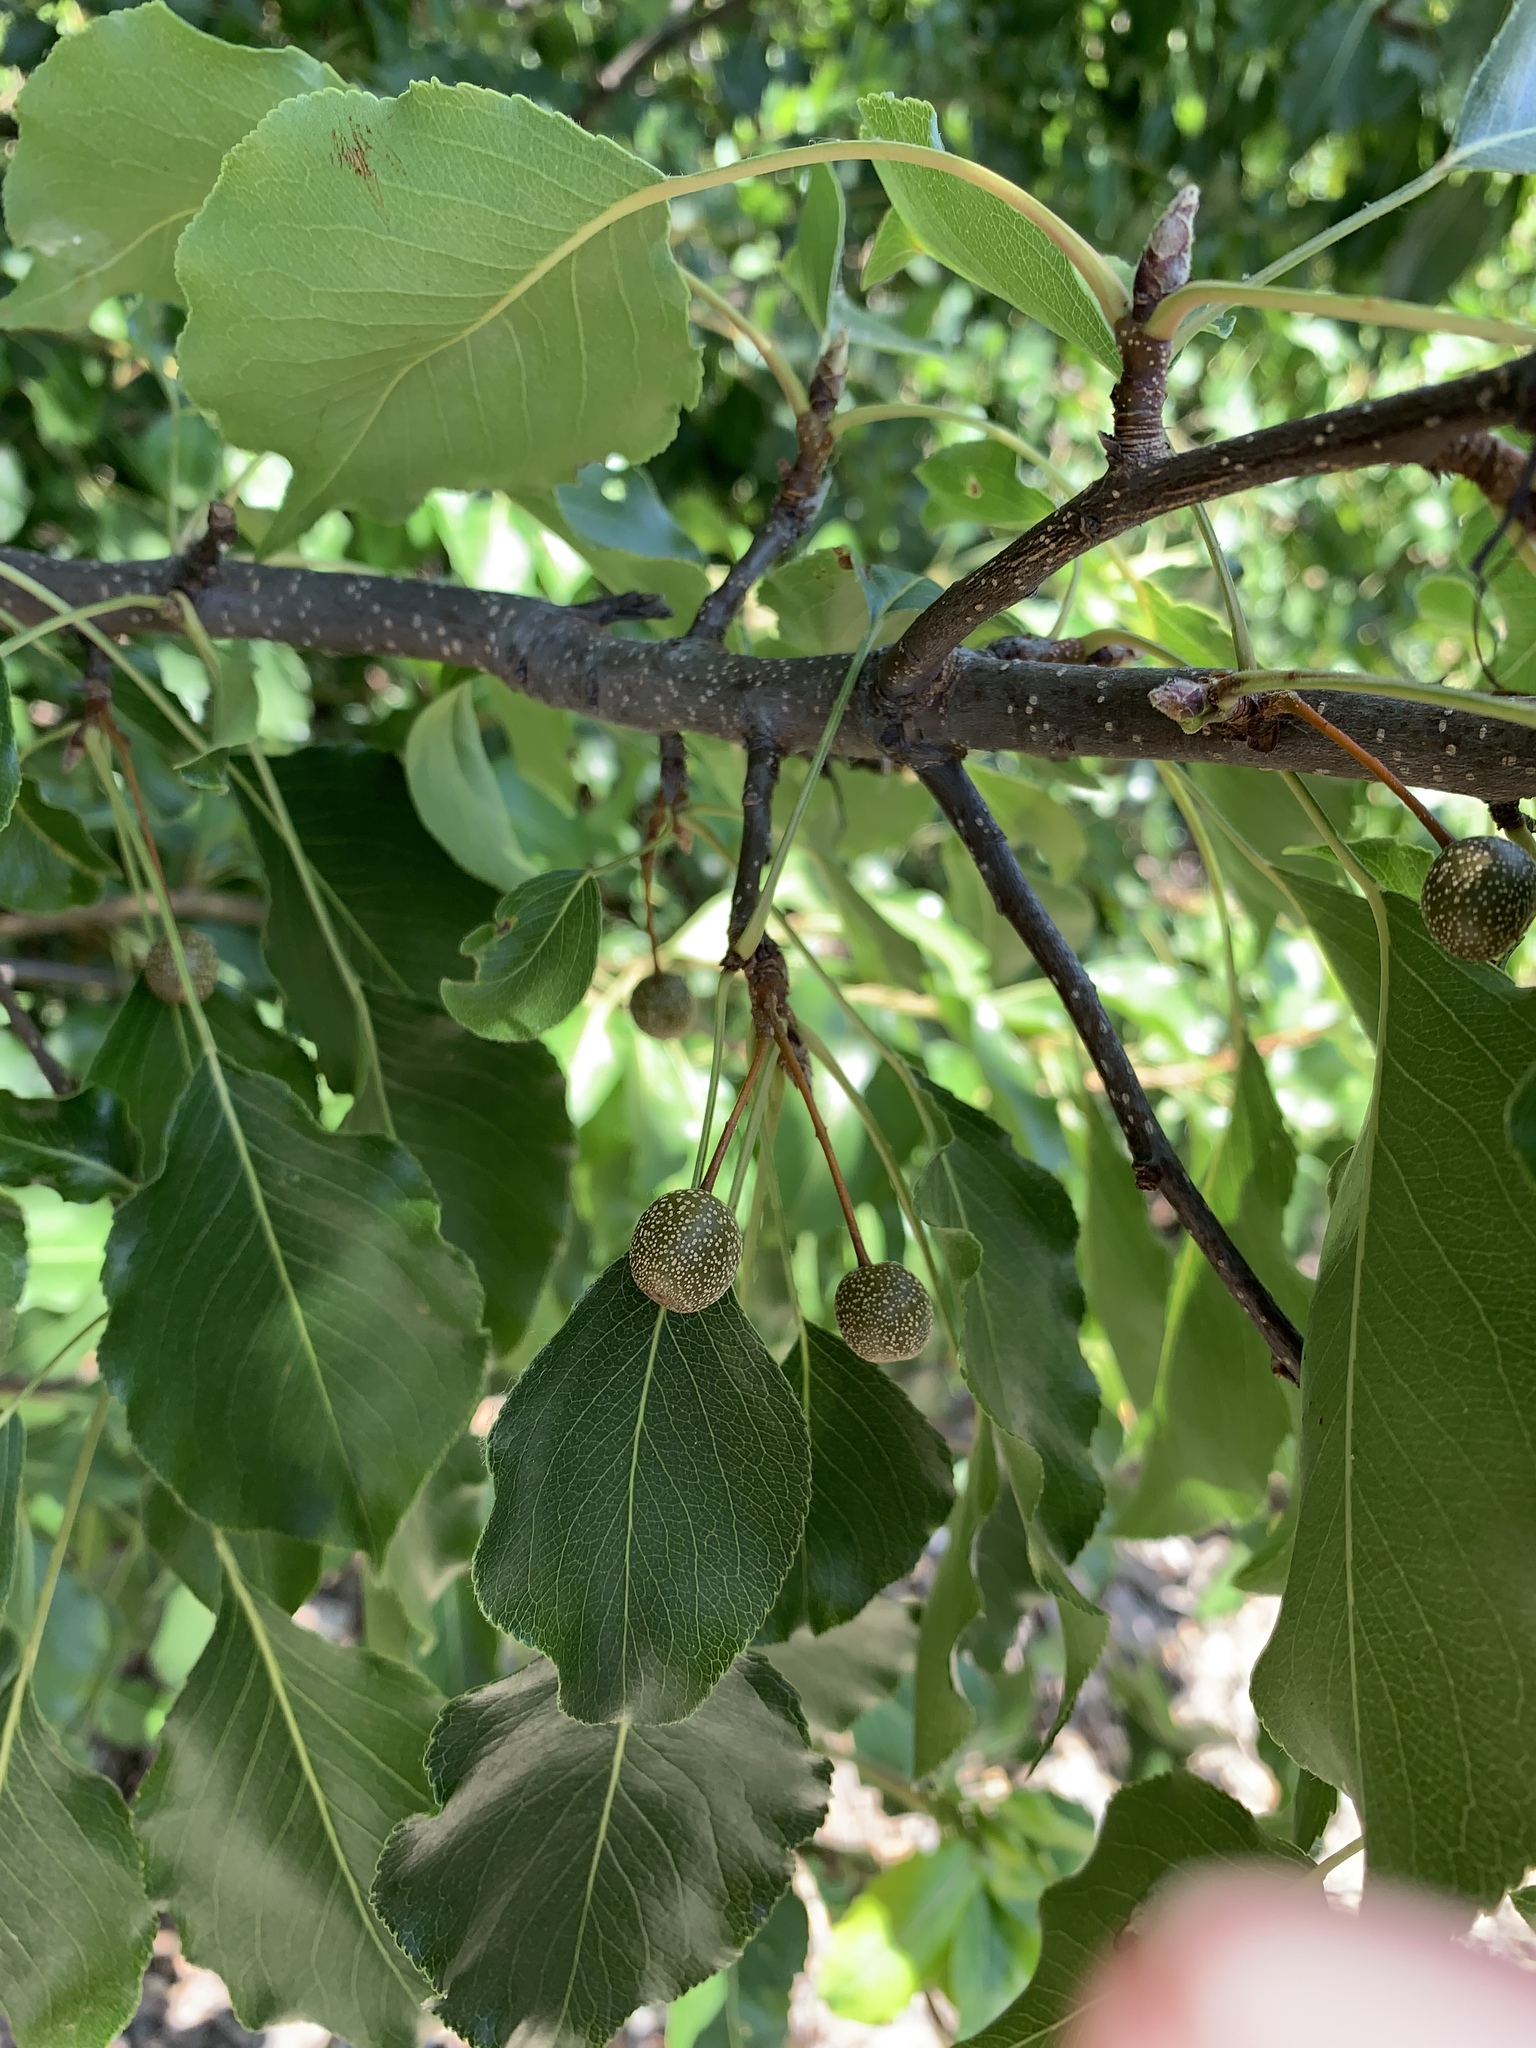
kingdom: Plantae
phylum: Tracheophyta
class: Magnoliopsida
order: Rosales
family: Rosaceae
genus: Pyrus
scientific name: Pyrus calleryana
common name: Callery pear
